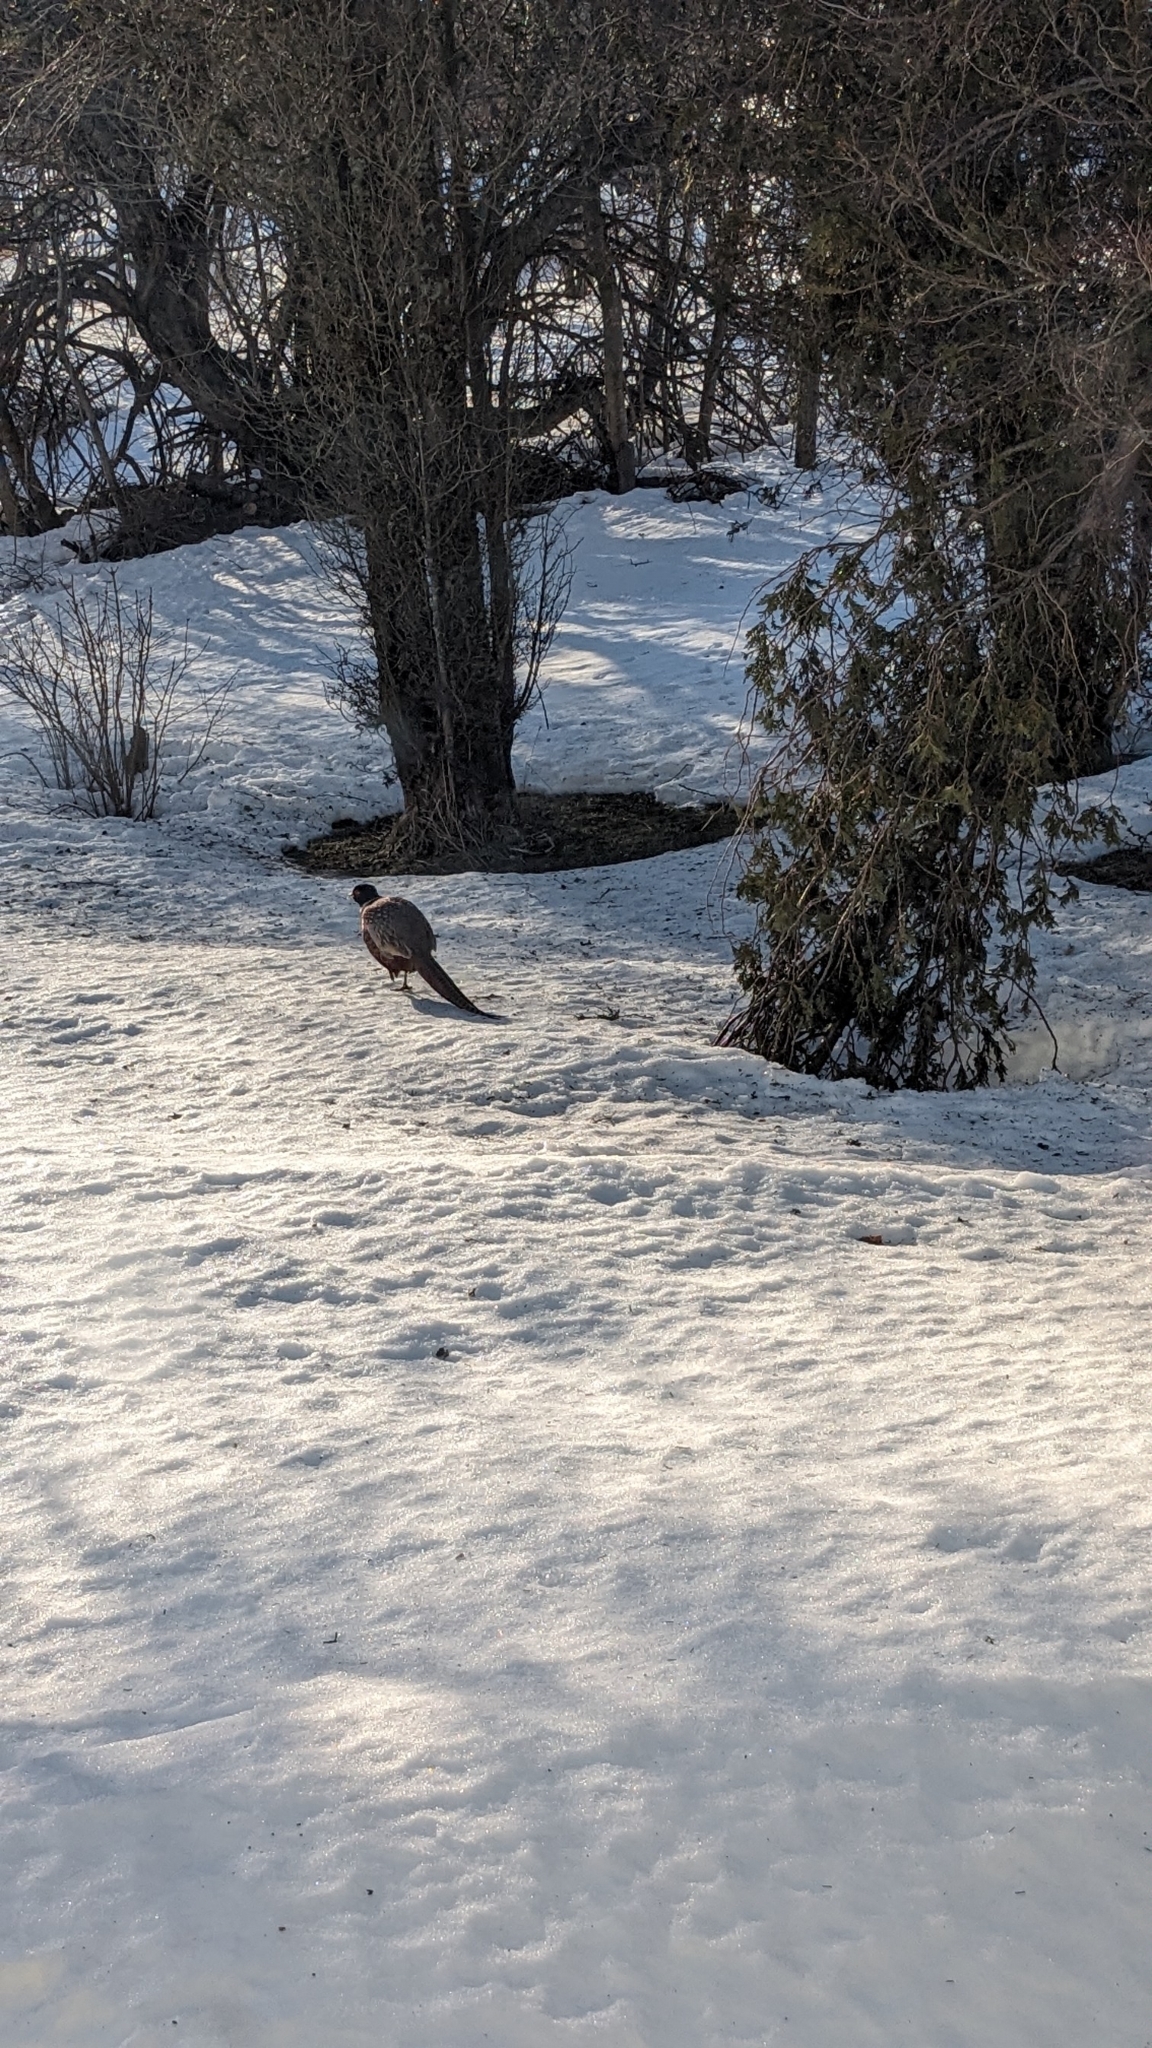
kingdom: Animalia
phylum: Chordata
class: Aves
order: Galliformes
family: Phasianidae
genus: Phasianus
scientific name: Phasianus colchicus
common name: Common pheasant
